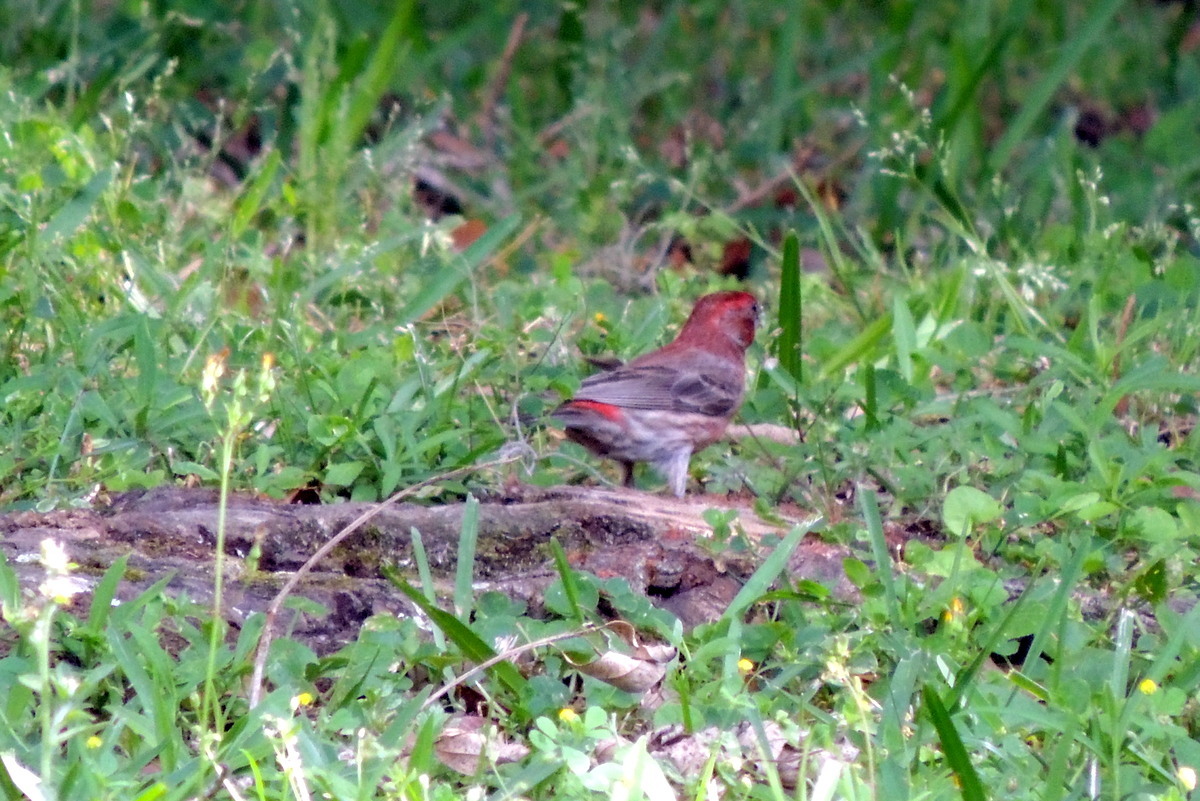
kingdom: Animalia
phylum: Chordata
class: Aves
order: Passeriformes
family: Fringillidae
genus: Haemorhous
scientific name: Haemorhous mexicanus
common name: House finch
